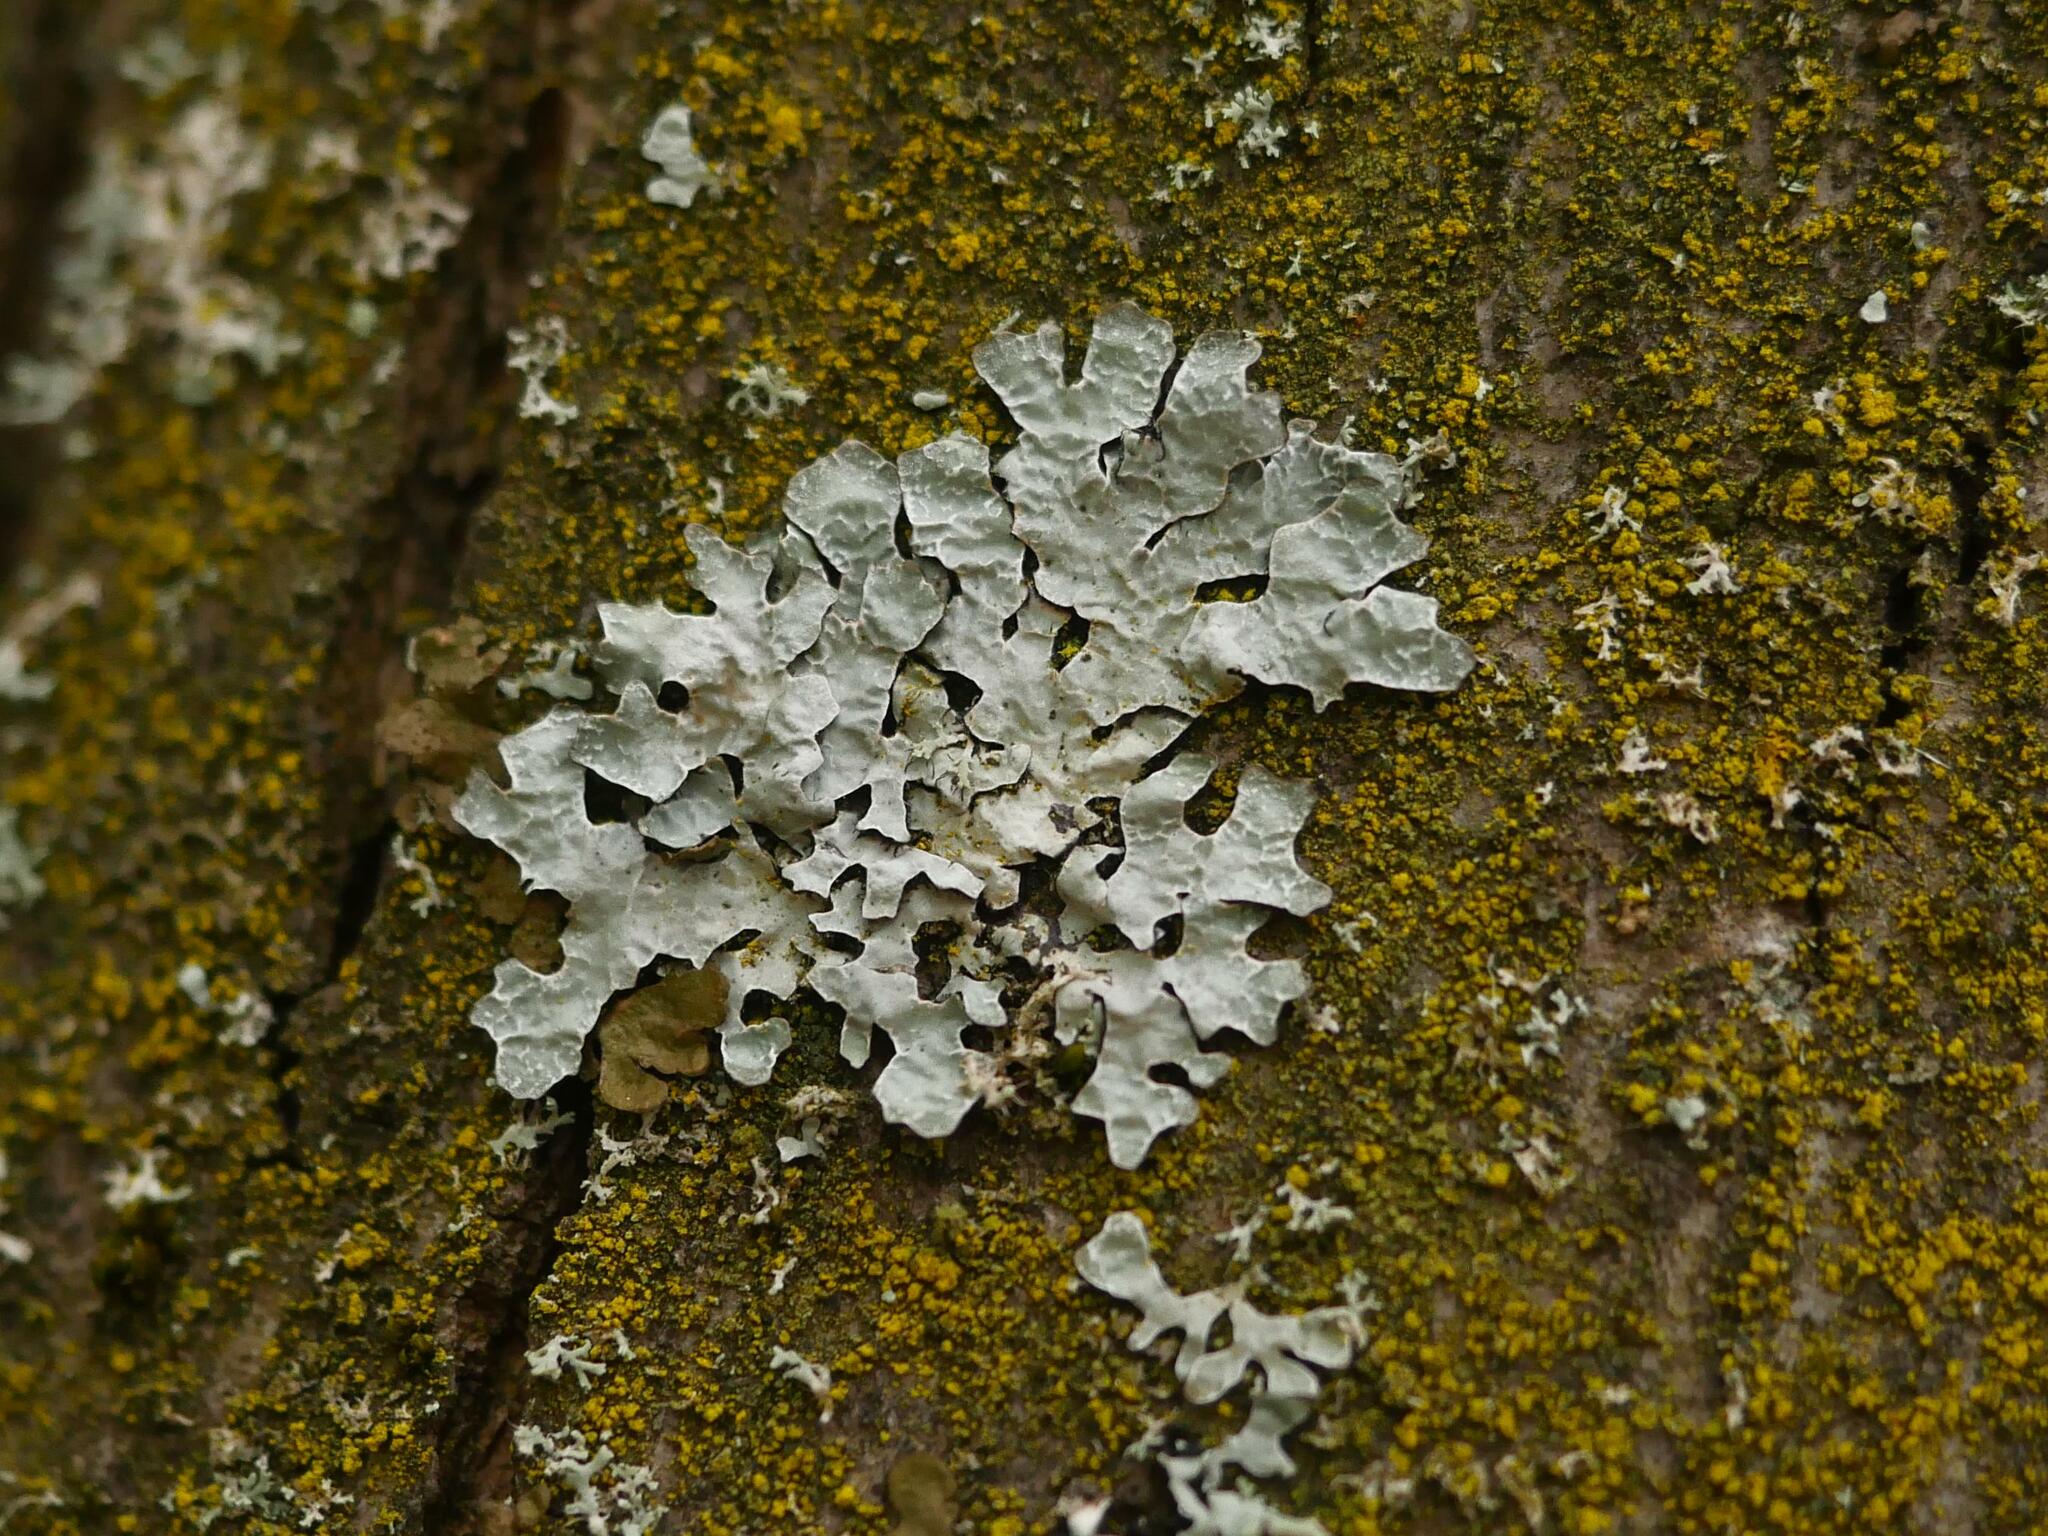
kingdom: Fungi
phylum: Ascomycota
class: Lecanoromycetes
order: Lecanorales
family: Parmeliaceae
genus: Parmelia
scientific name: Parmelia sulcata
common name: Netted shield lichen
